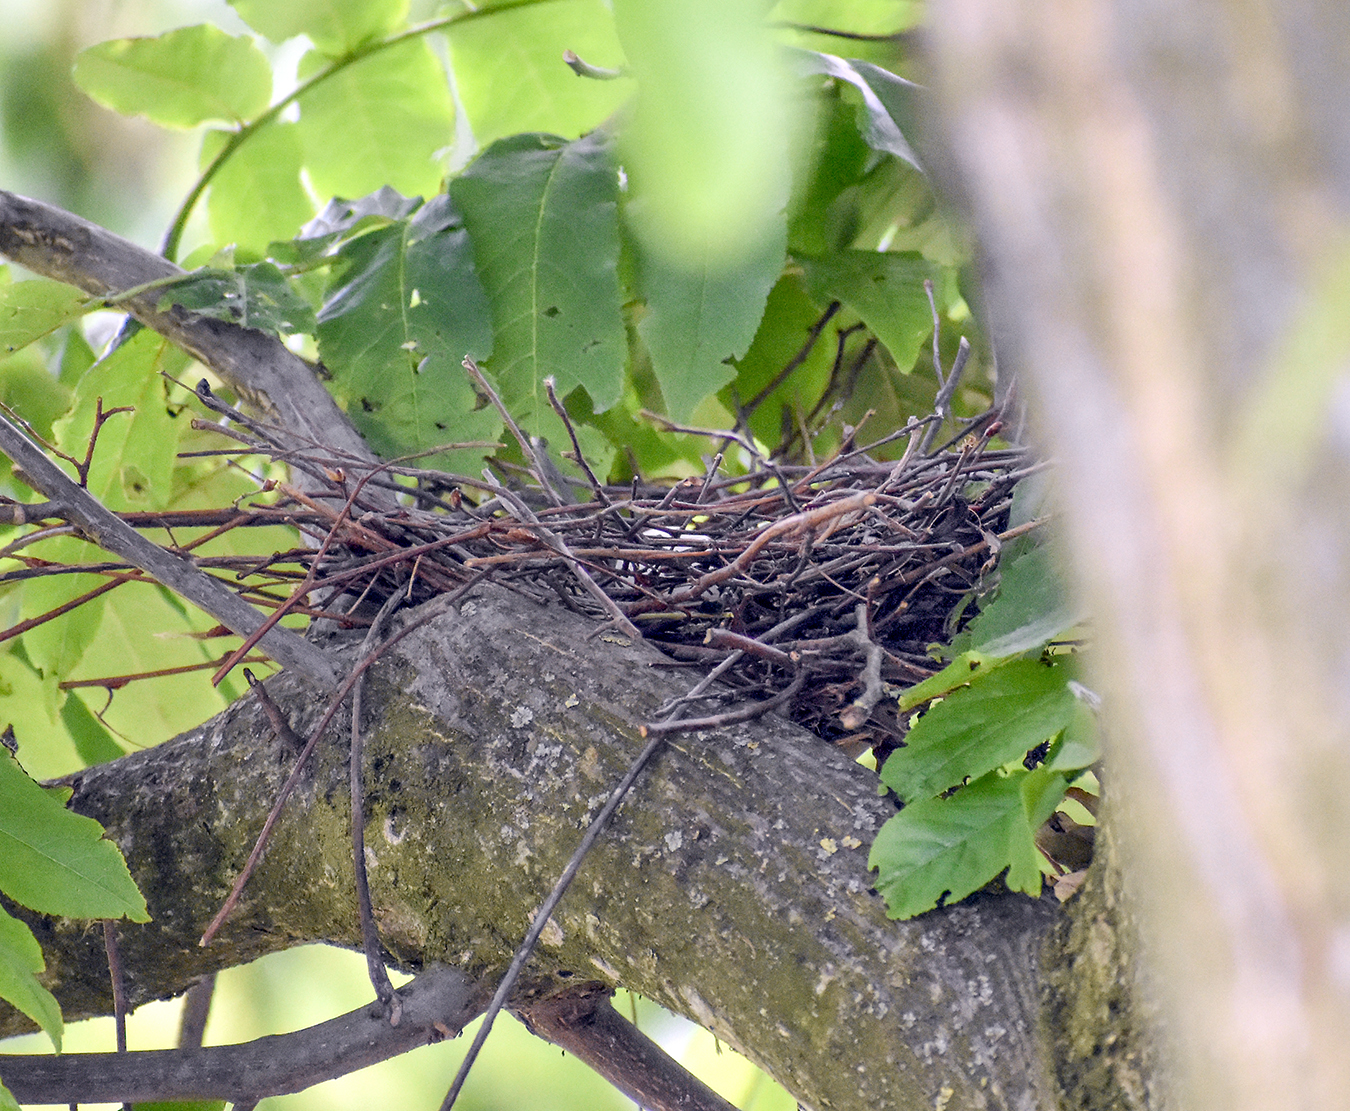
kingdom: Animalia
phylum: Chordata
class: Aves
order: Columbiformes
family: Columbidae
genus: Streptopelia
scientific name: Streptopelia decaocto
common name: Eurasian collared dove
